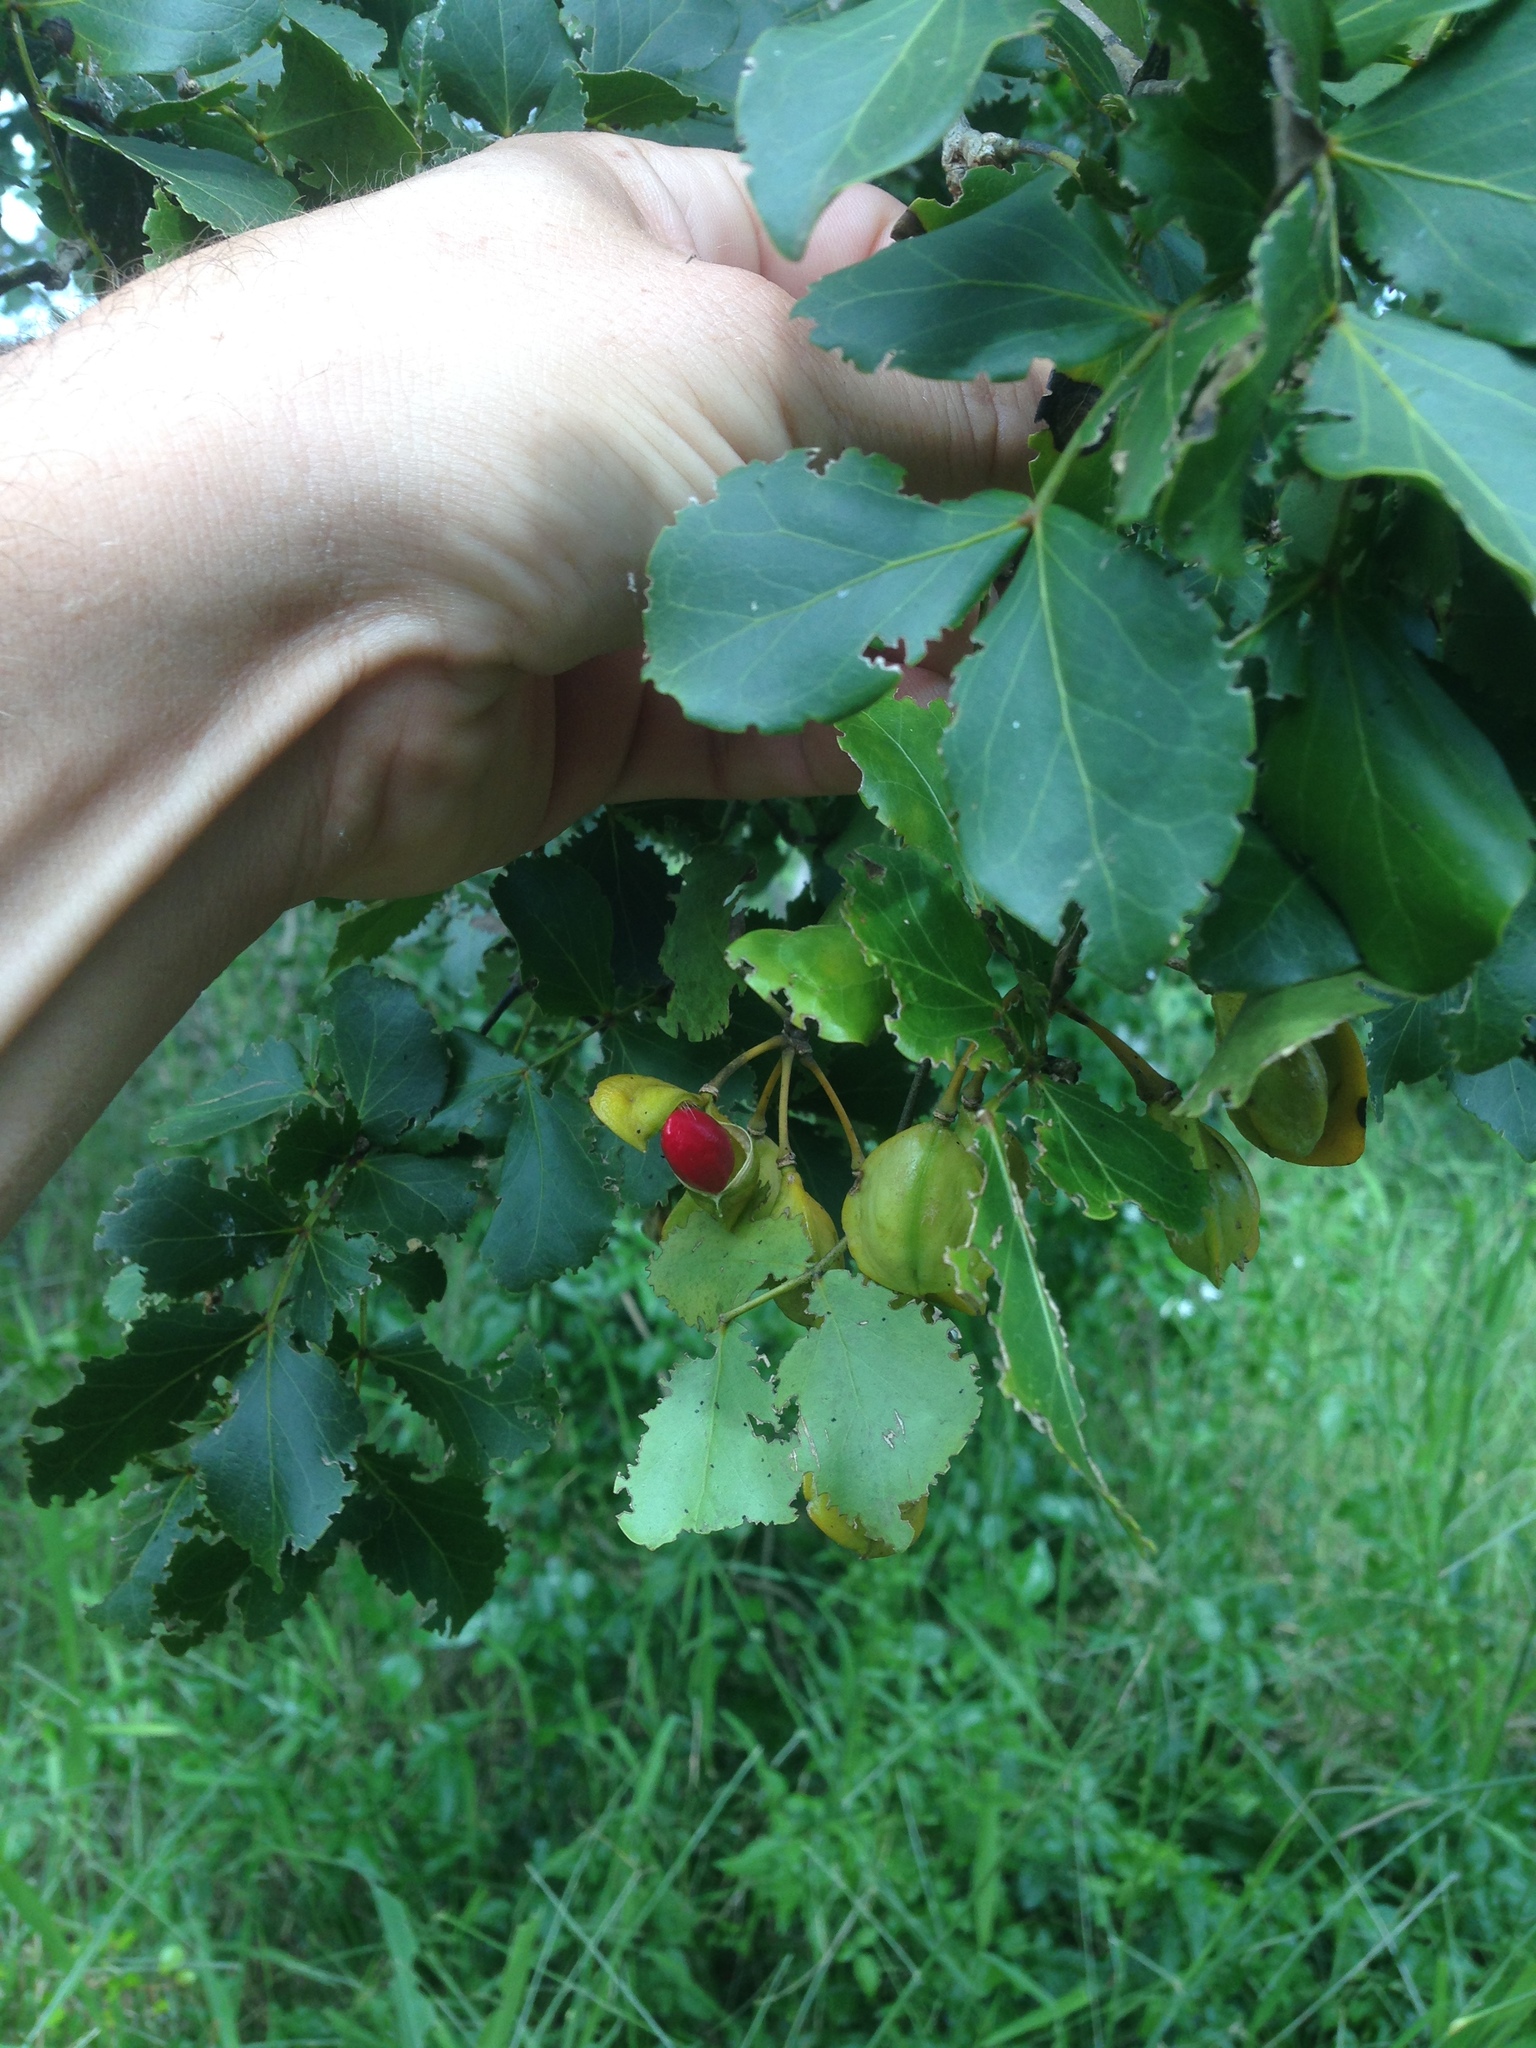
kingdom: Plantae
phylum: Tracheophyta
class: Magnoliopsida
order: Zygophyllales
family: Zygophyllaceae
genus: Guaiacum
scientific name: Guaiacum officinale
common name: Lignum vitae
